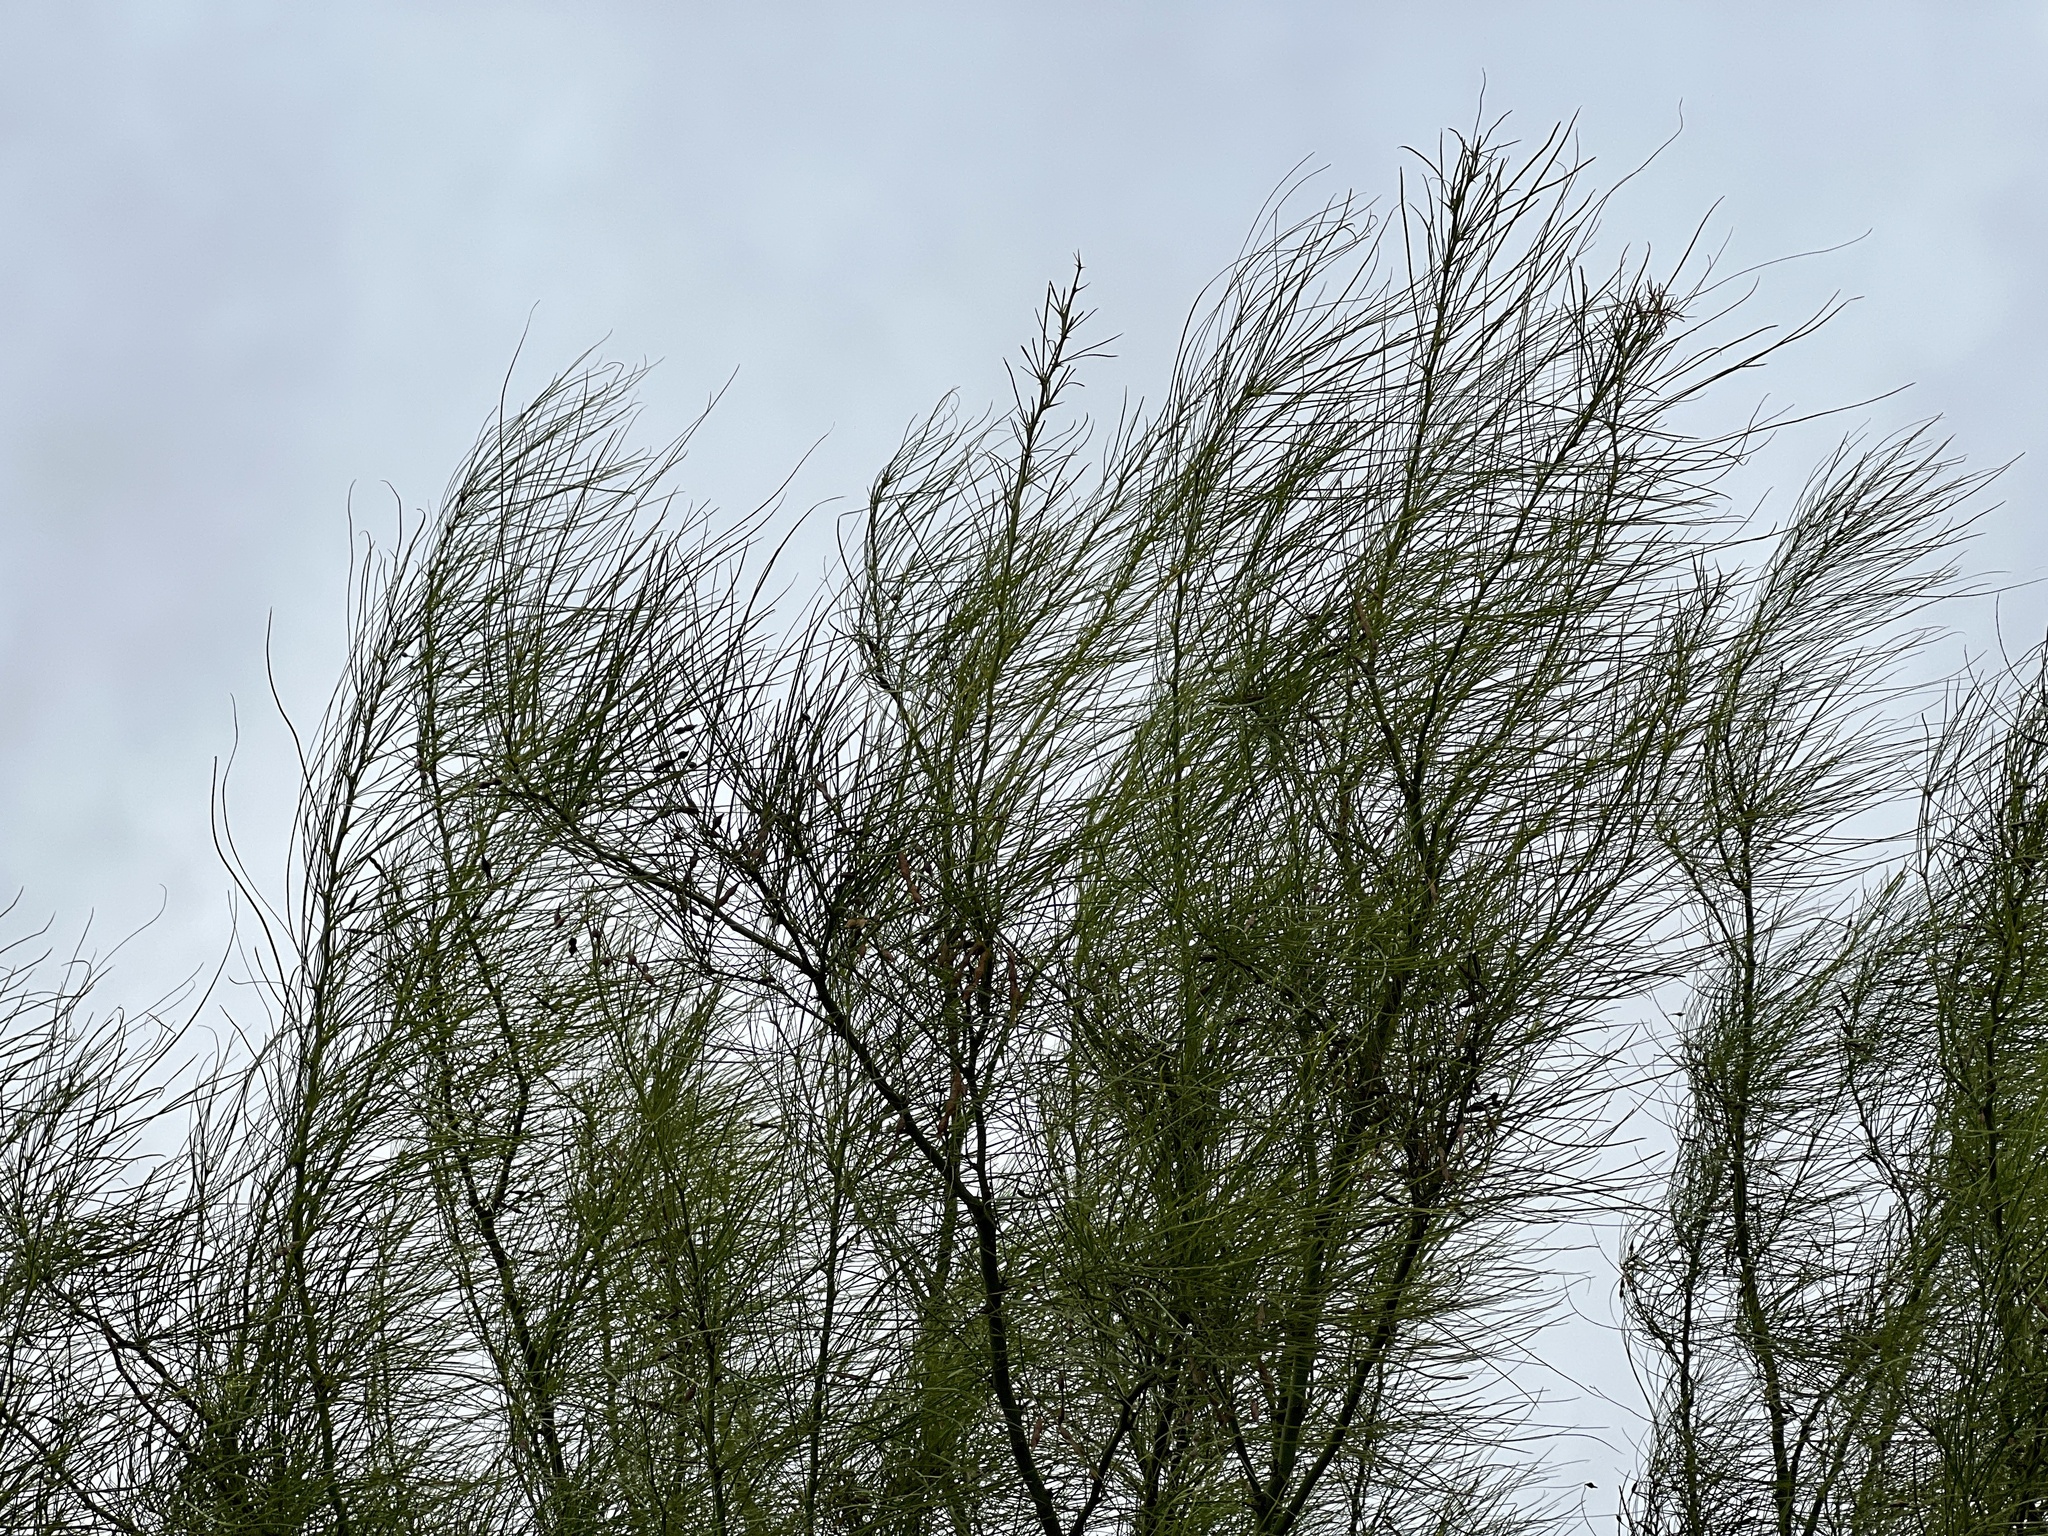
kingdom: Plantae
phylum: Tracheophyta
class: Magnoliopsida
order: Fabales
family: Fabaceae
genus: Parkinsonia
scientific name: Parkinsonia aculeata
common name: Jerusalem thorn
